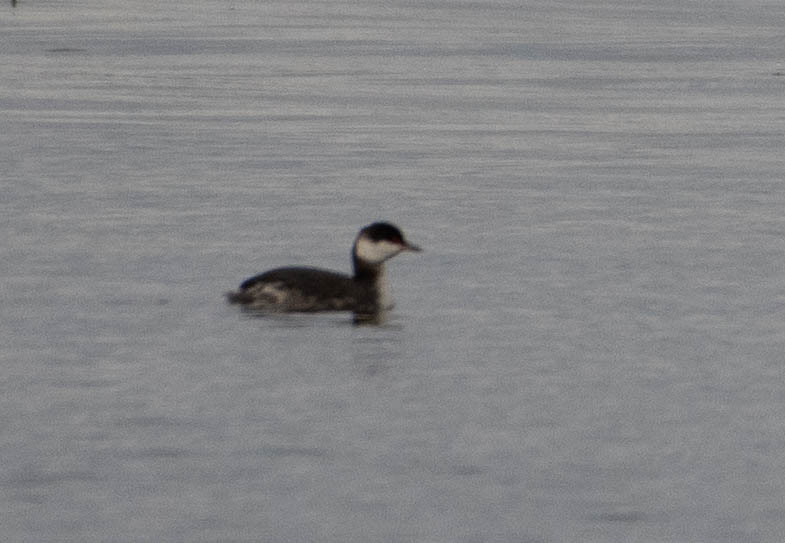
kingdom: Animalia
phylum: Chordata
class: Aves
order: Podicipediformes
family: Podicipedidae
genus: Podiceps
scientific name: Podiceps auritus
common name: Horned grebe
